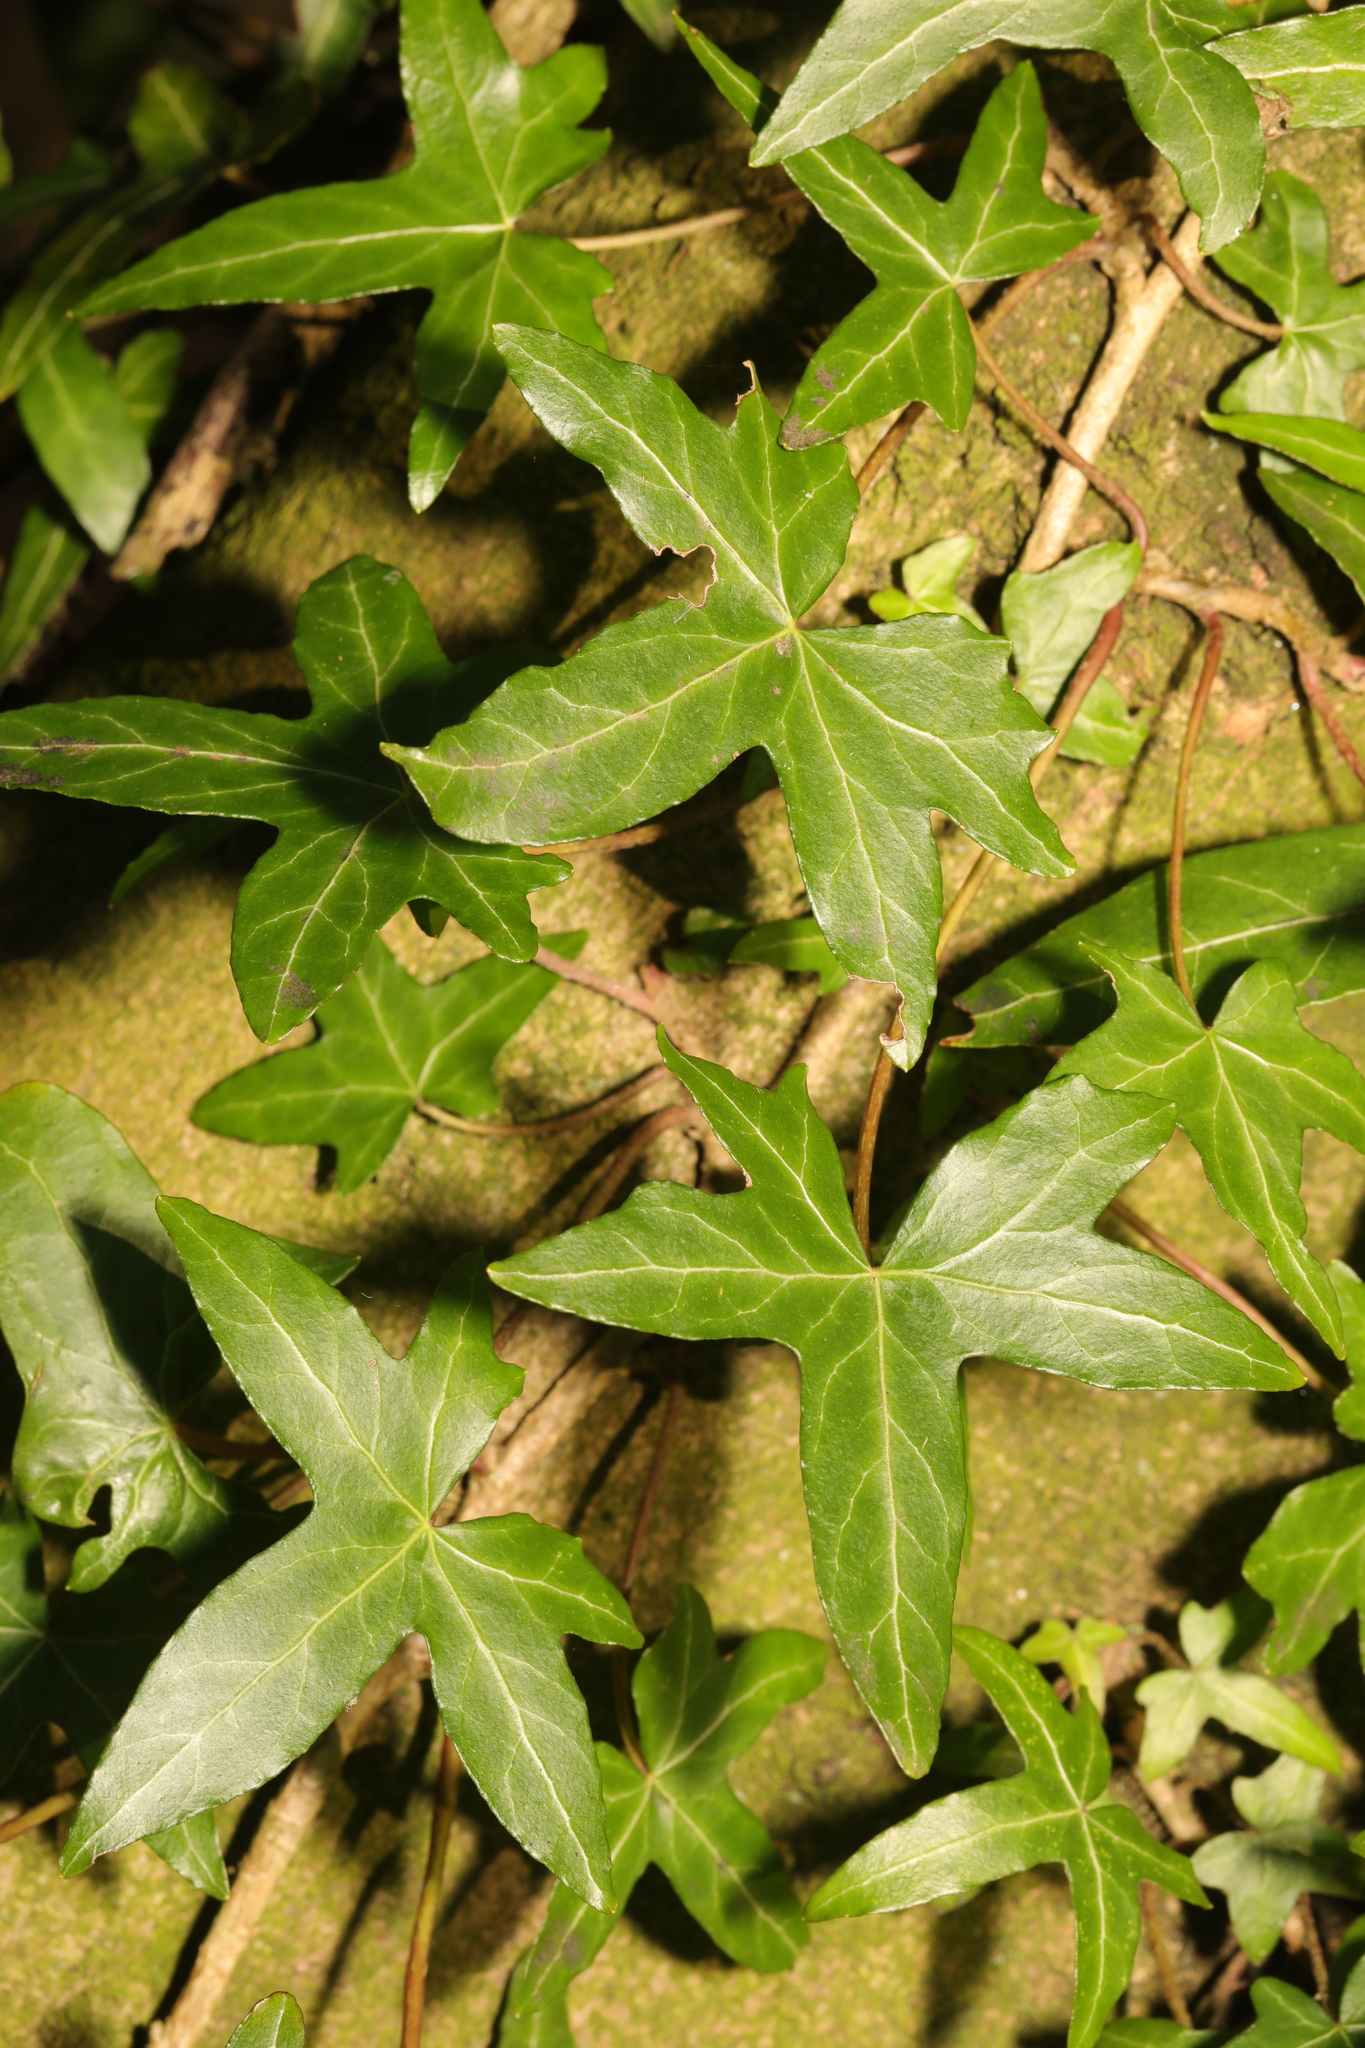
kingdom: Plantae
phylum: Tracheophyta
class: Magnoliopsida
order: Apiales
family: Araliaceae
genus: Hedera
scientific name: Hedera helix
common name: Ivy
